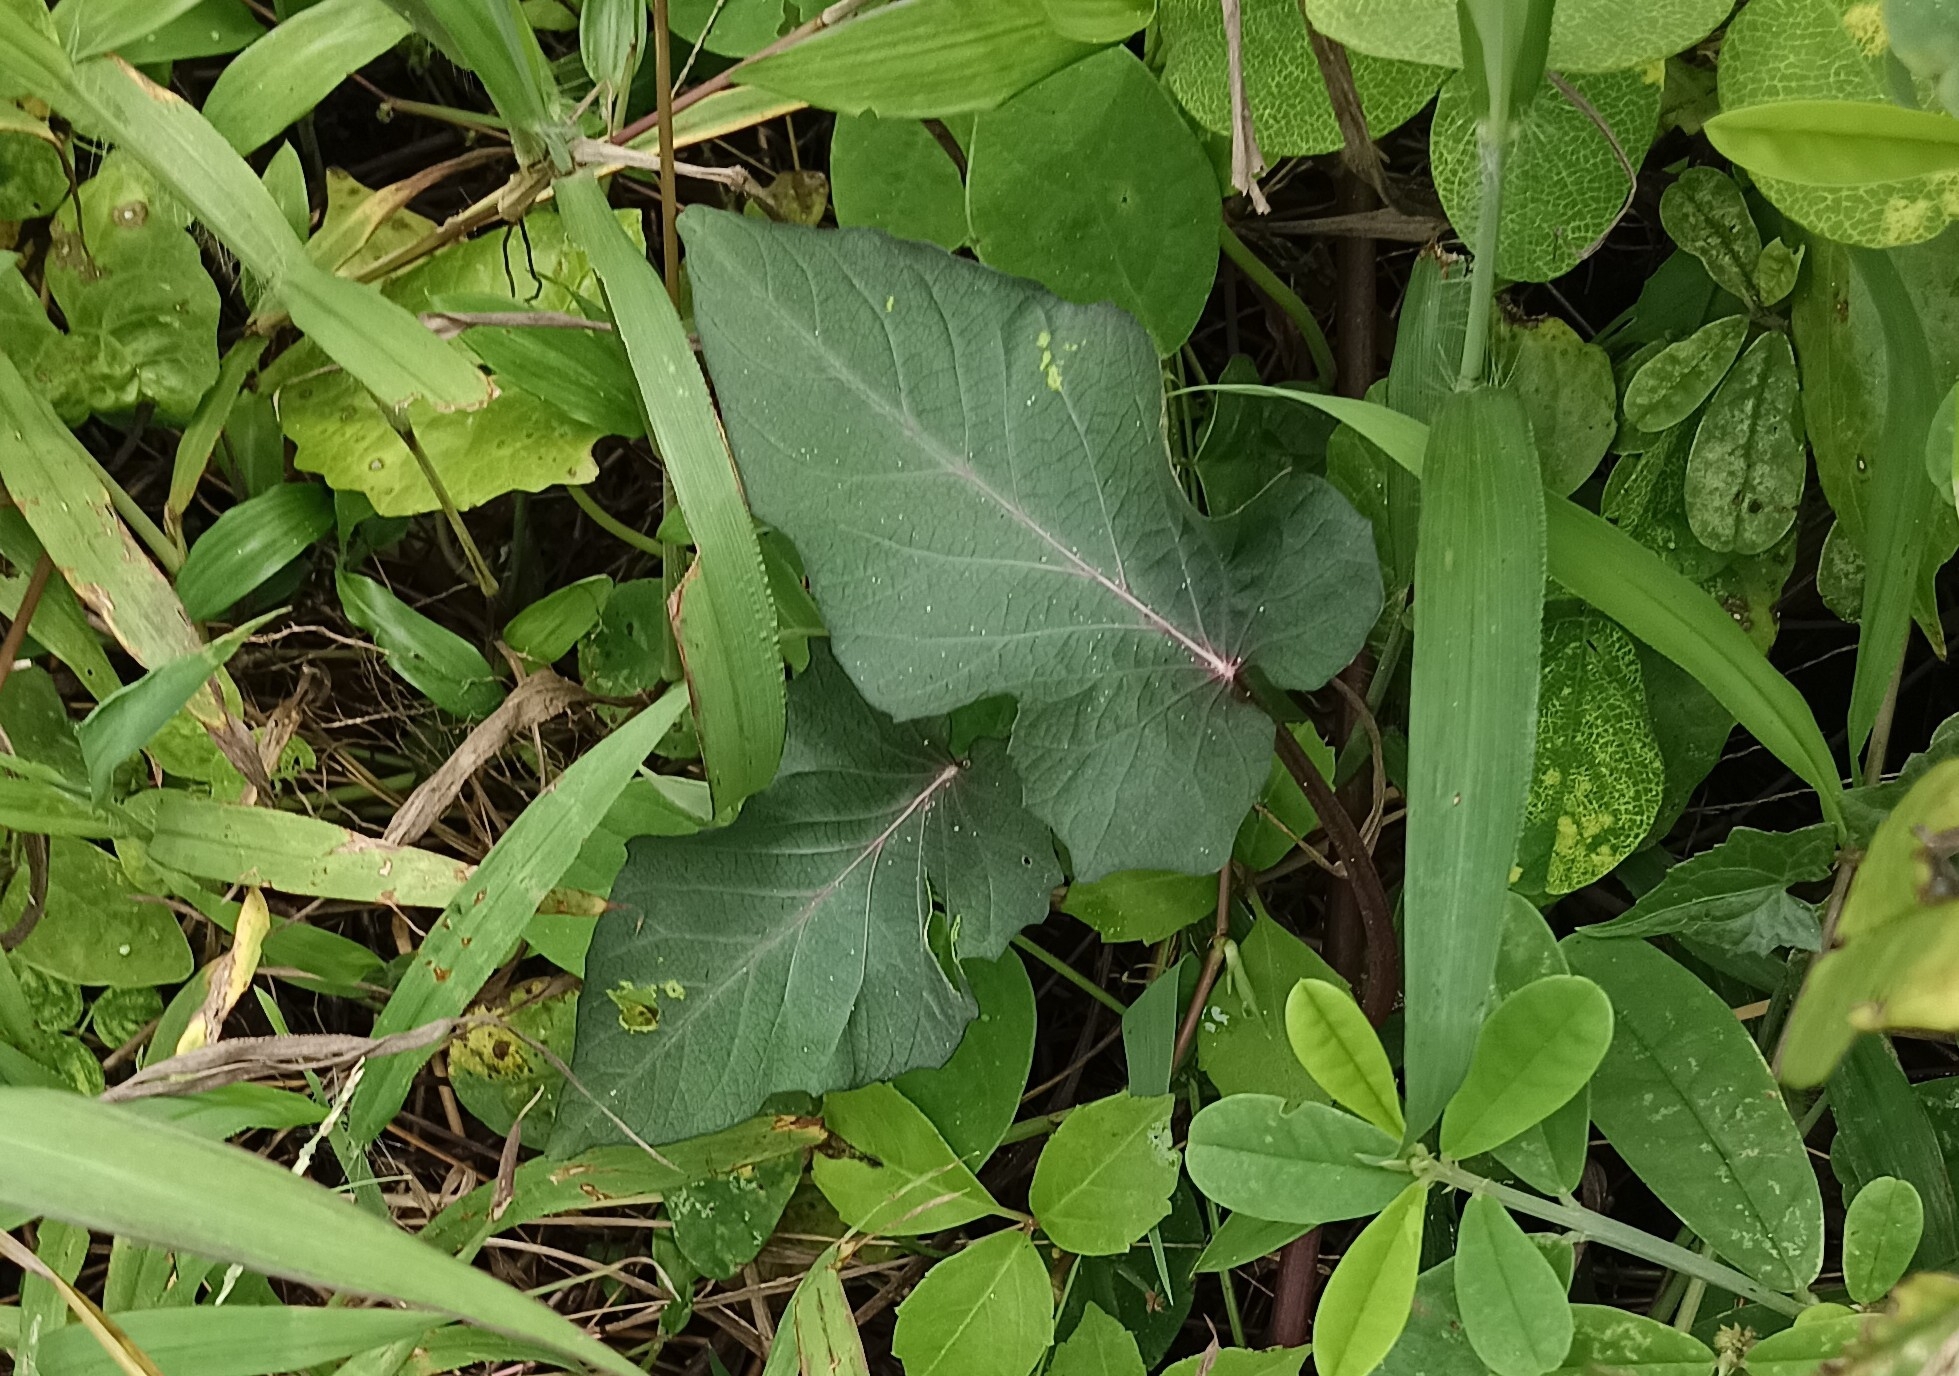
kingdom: Plantae
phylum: Tracheophyta
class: Magnoliopsida
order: Solanales
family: Convolvulaceae
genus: Ipomoea
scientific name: Ipomoea aquatica
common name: Swamp morning-glory
